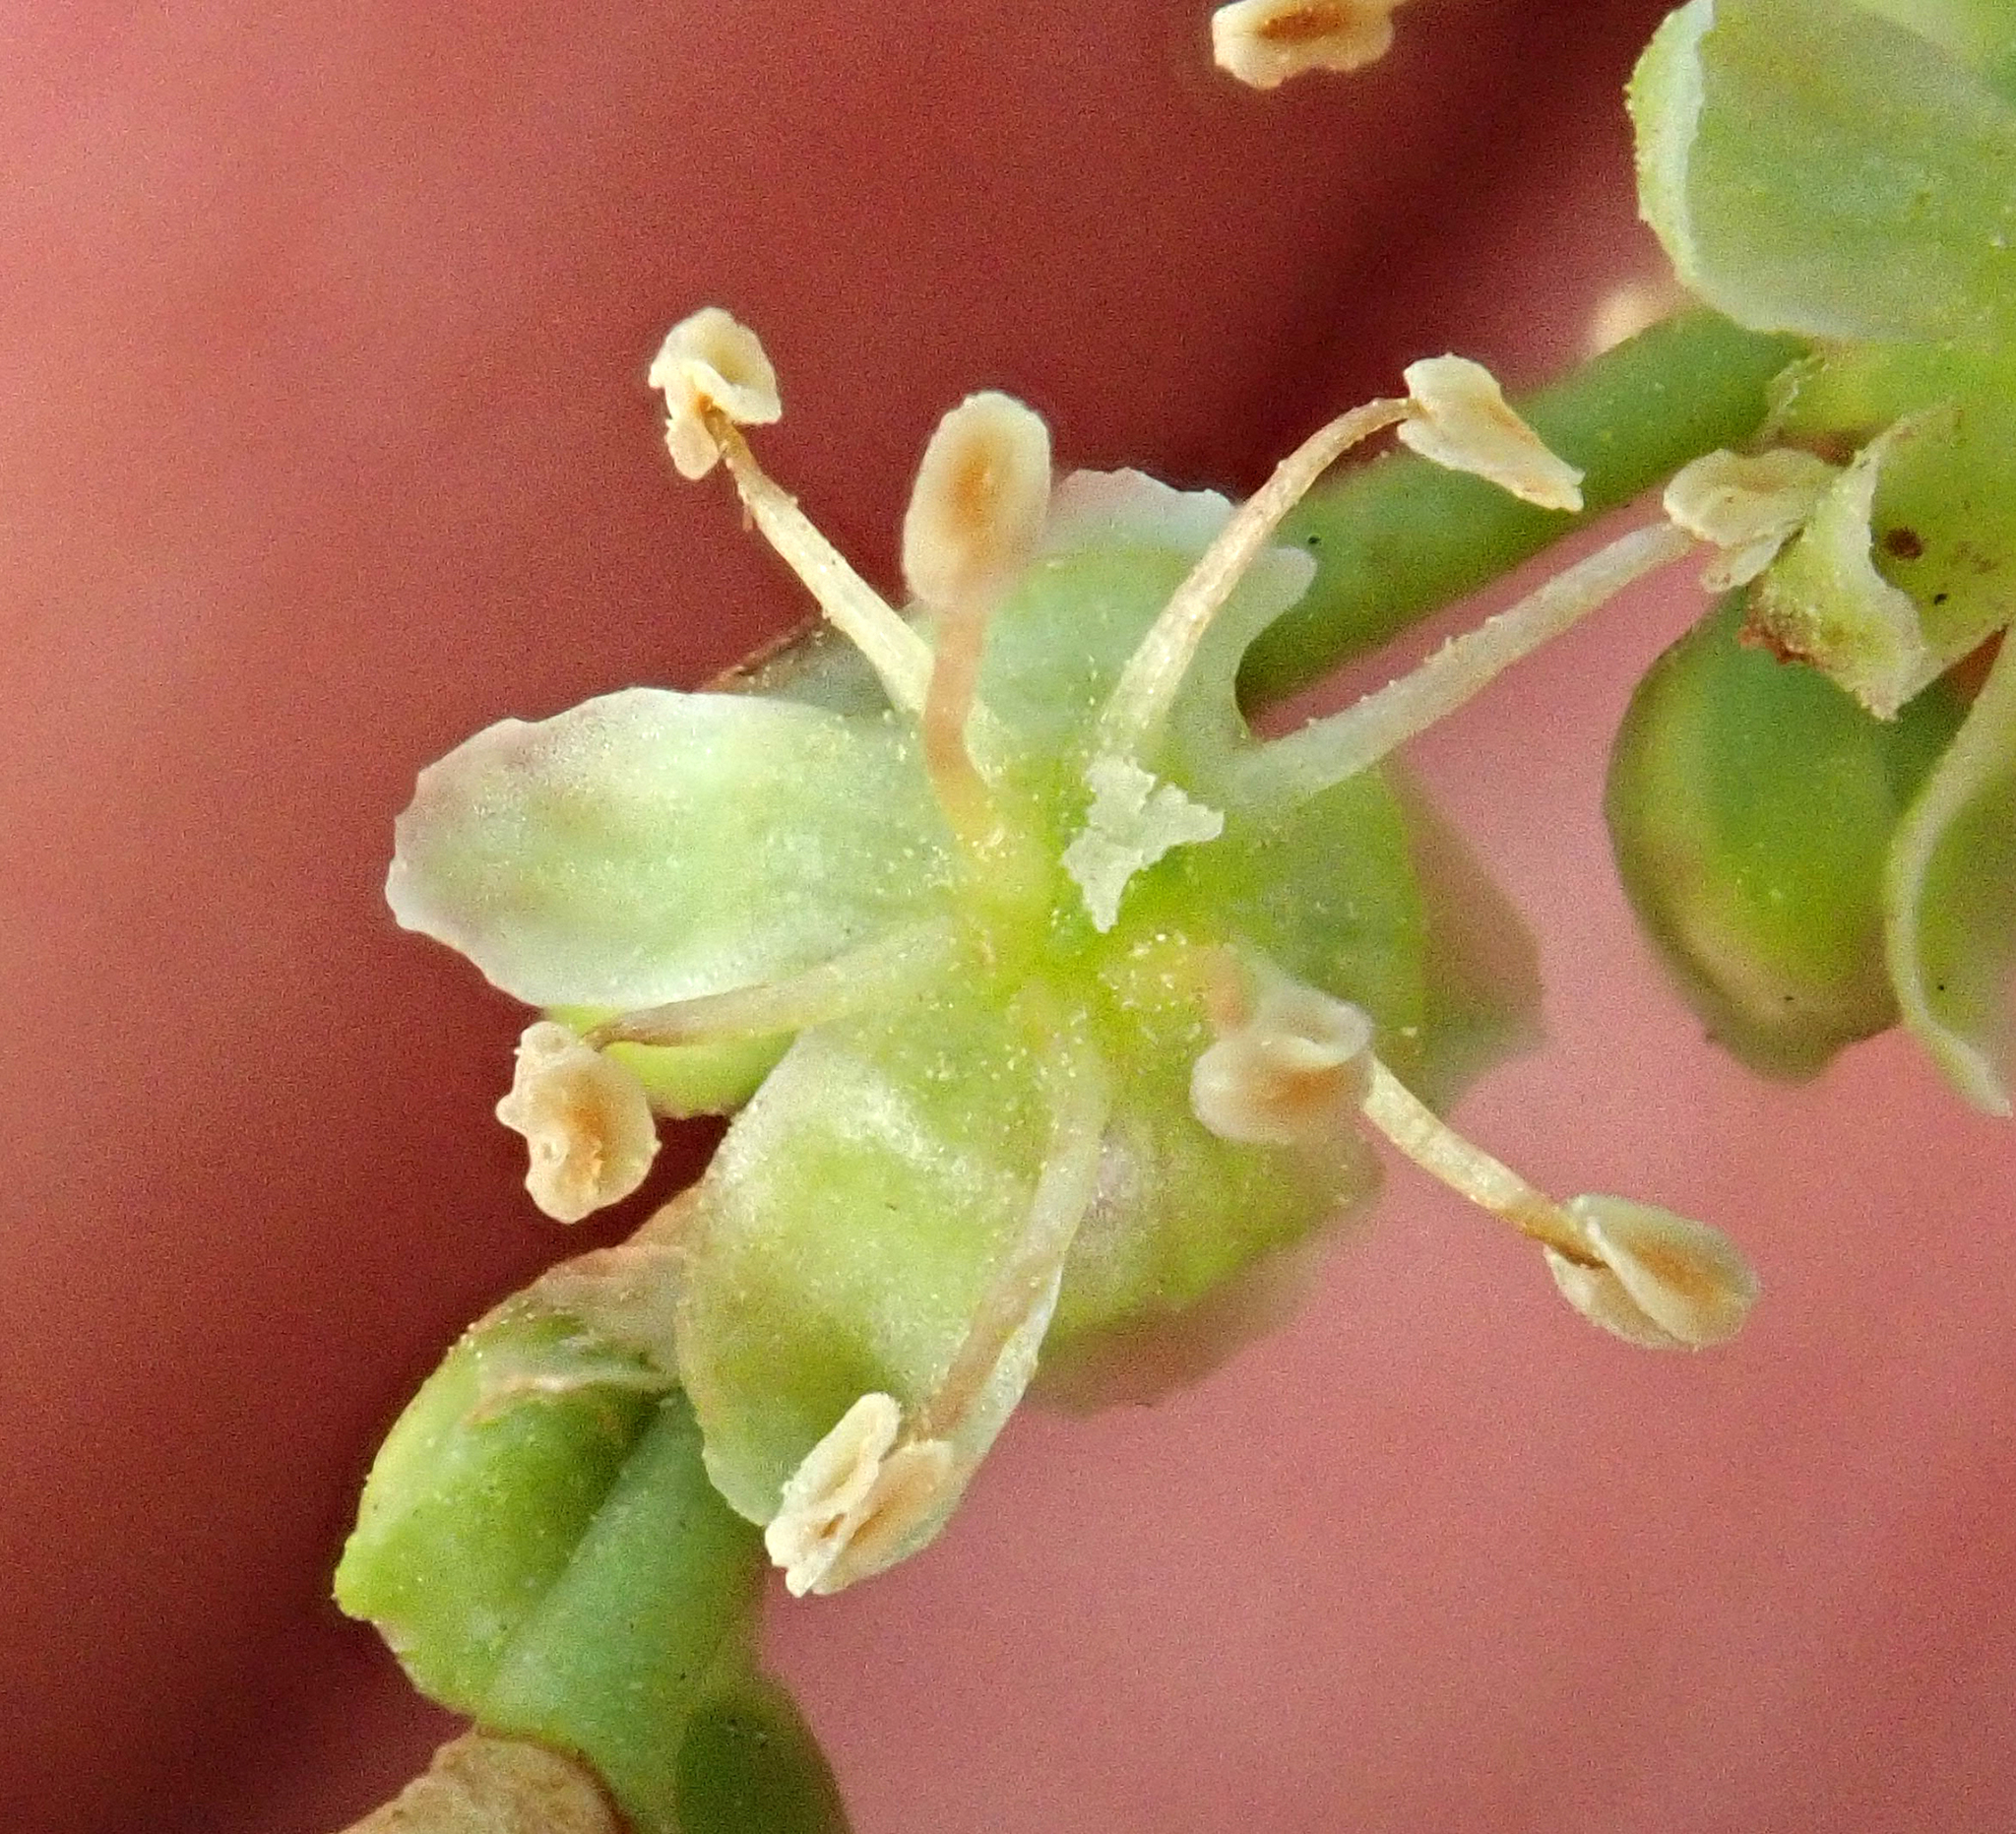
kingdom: Plantae
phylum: Tracheophyta
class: Magnoliopsida
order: Caryophyllales
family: Polygonaceae
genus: Muehlenbeckia
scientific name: Muehlenbeckia australis
